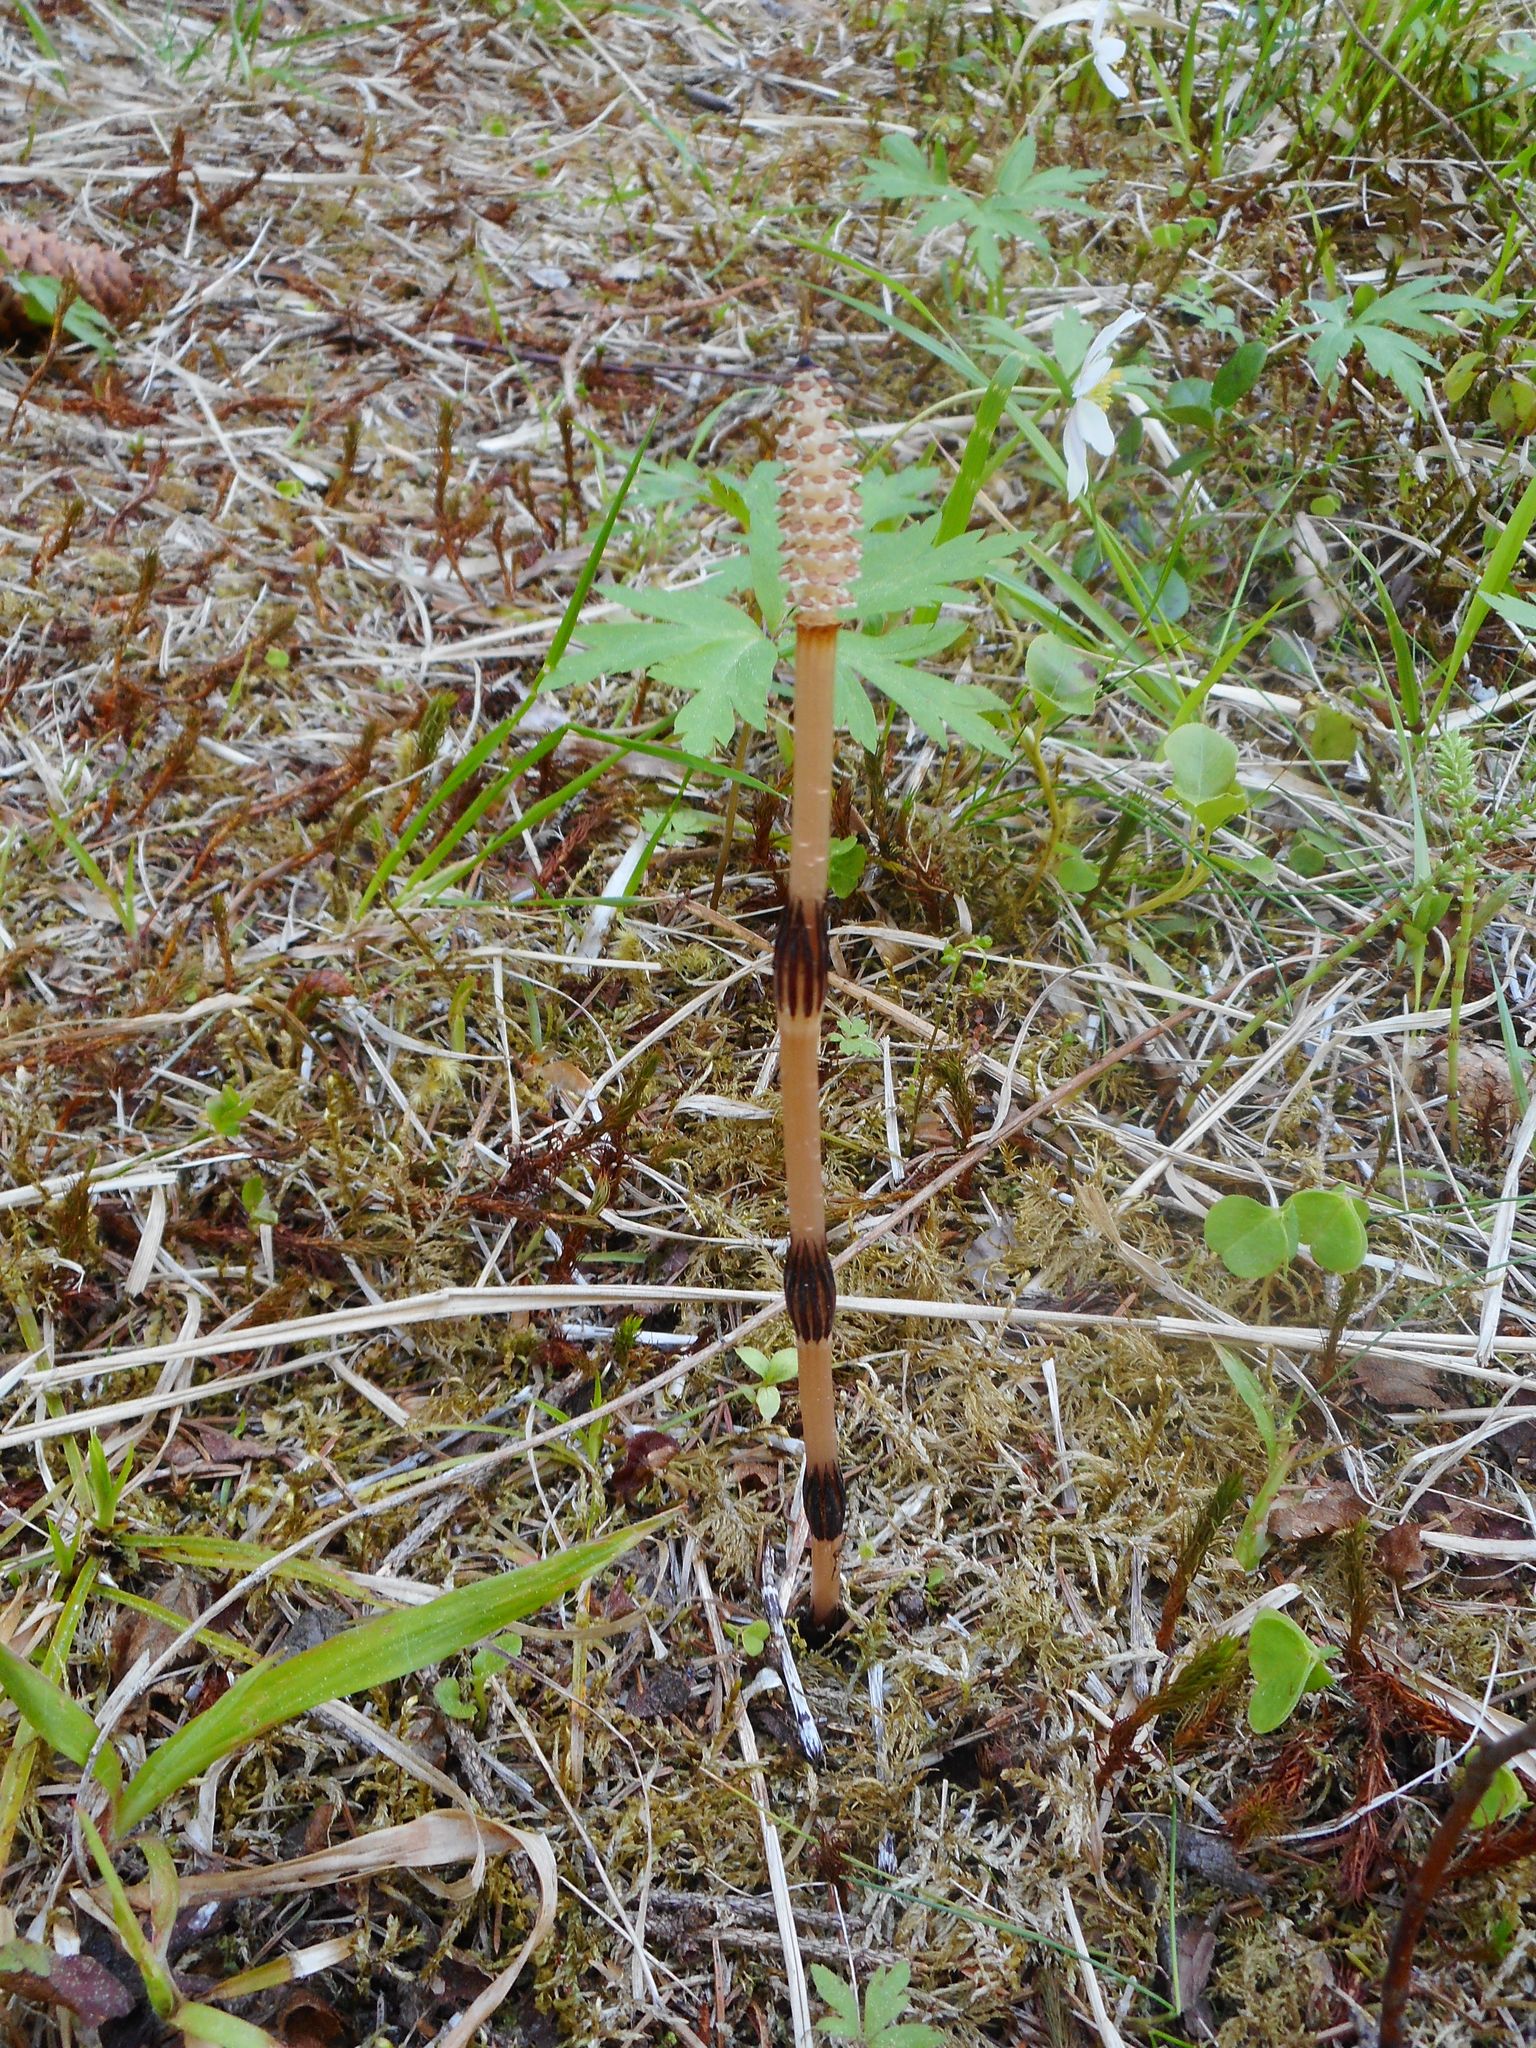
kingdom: Plantae
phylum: Tracheophyta
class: Polypodiopsida
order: Equisetales
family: Equisetaceae
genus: Equisetum
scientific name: Equisetum arvense
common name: Field horsetail
